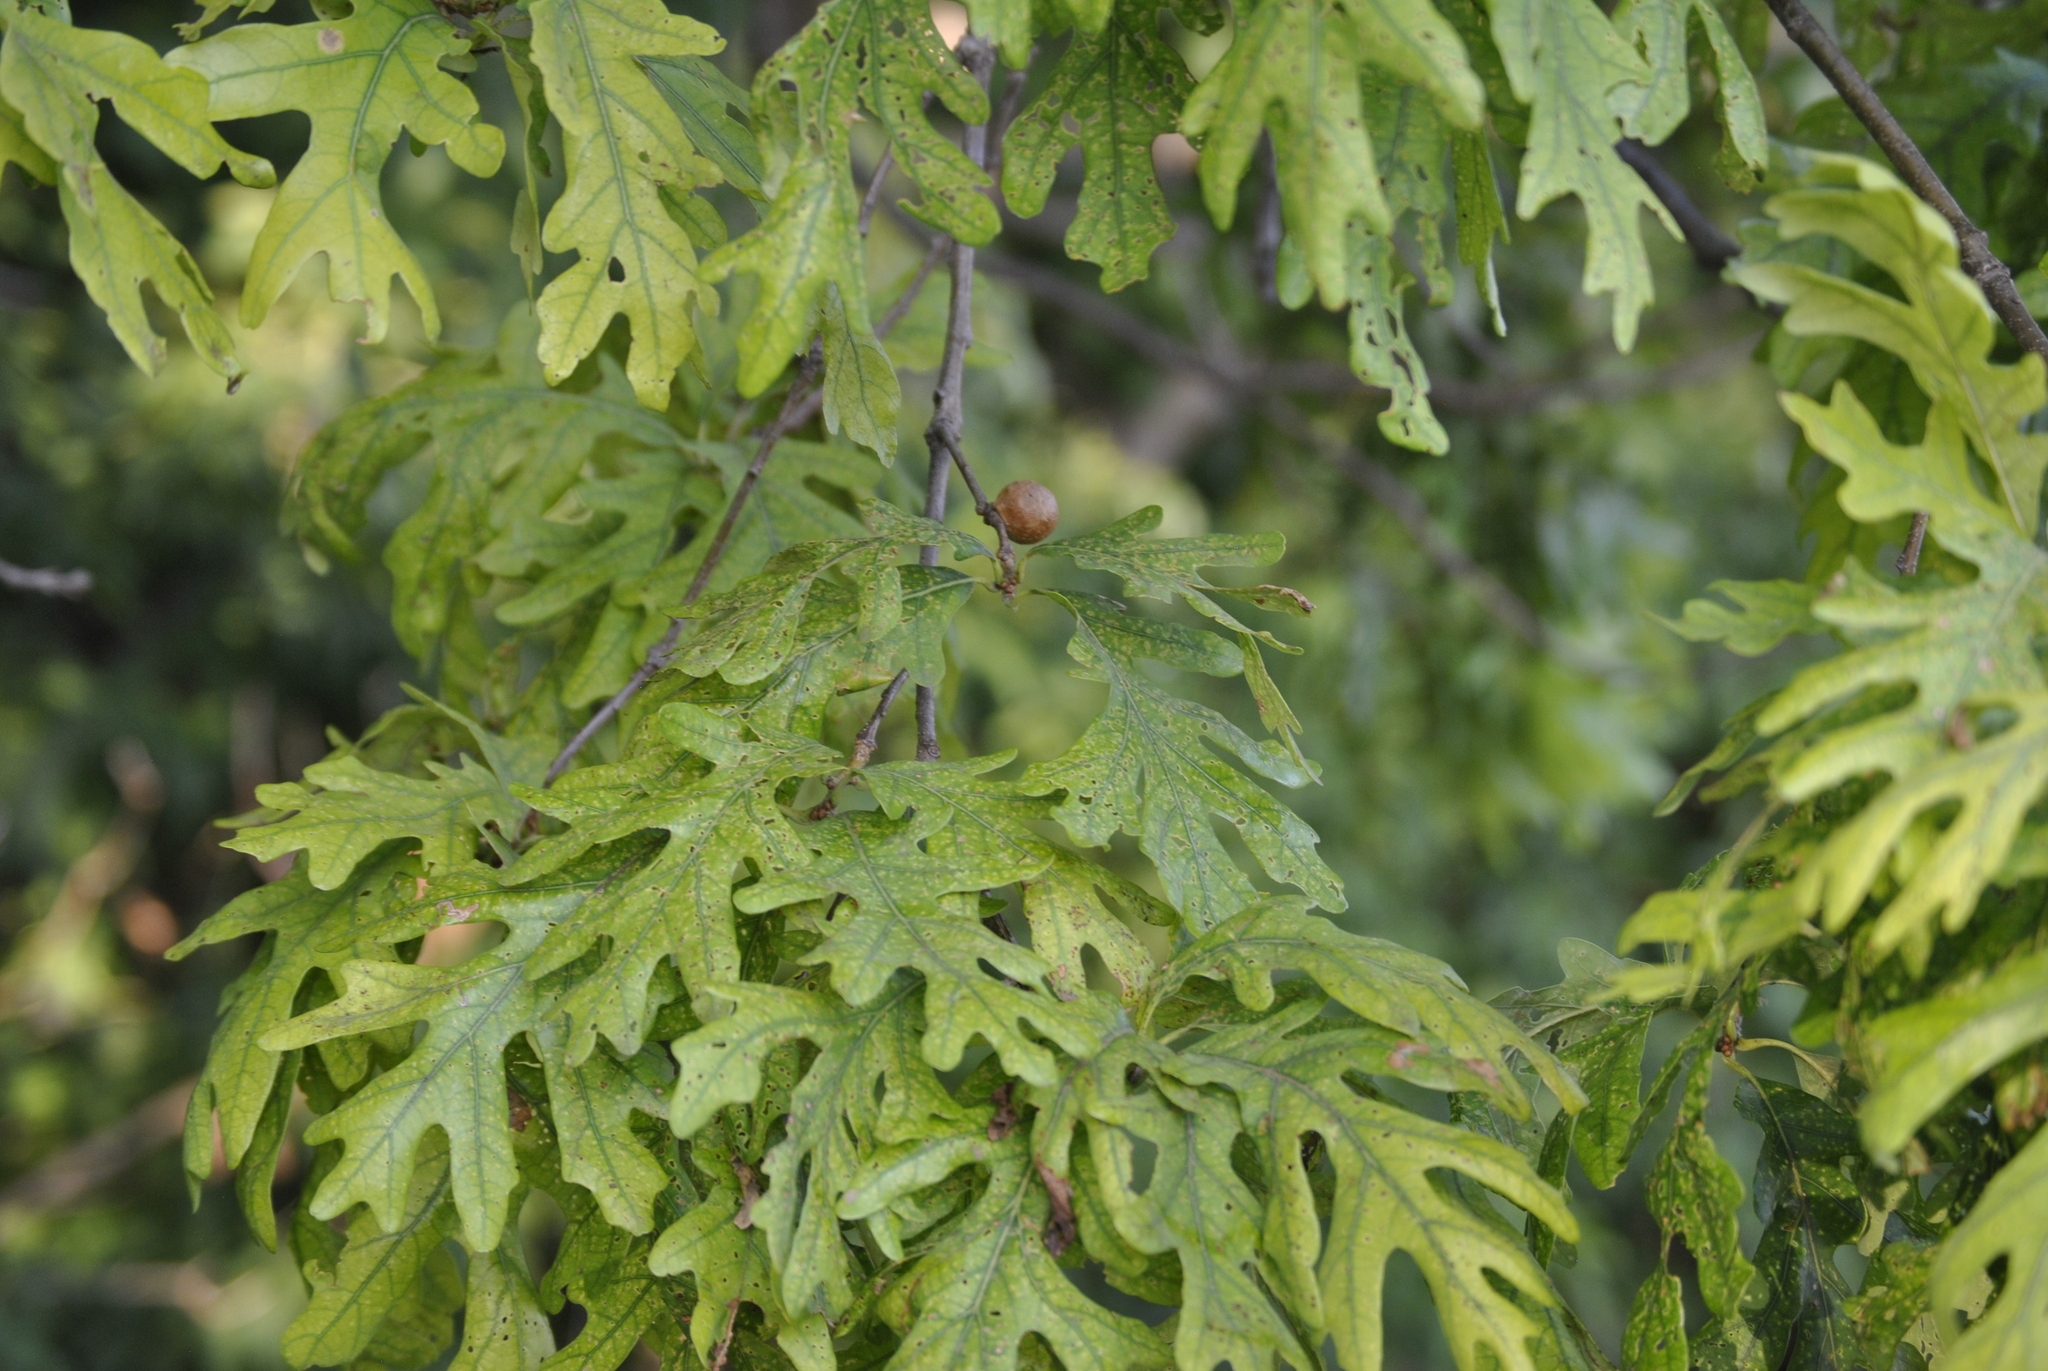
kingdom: Plantae
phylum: Tracheophyta
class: Magnoliopsida
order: Fagales
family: Fagaceae
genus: Quercus
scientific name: Quercus alba
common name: White oak
